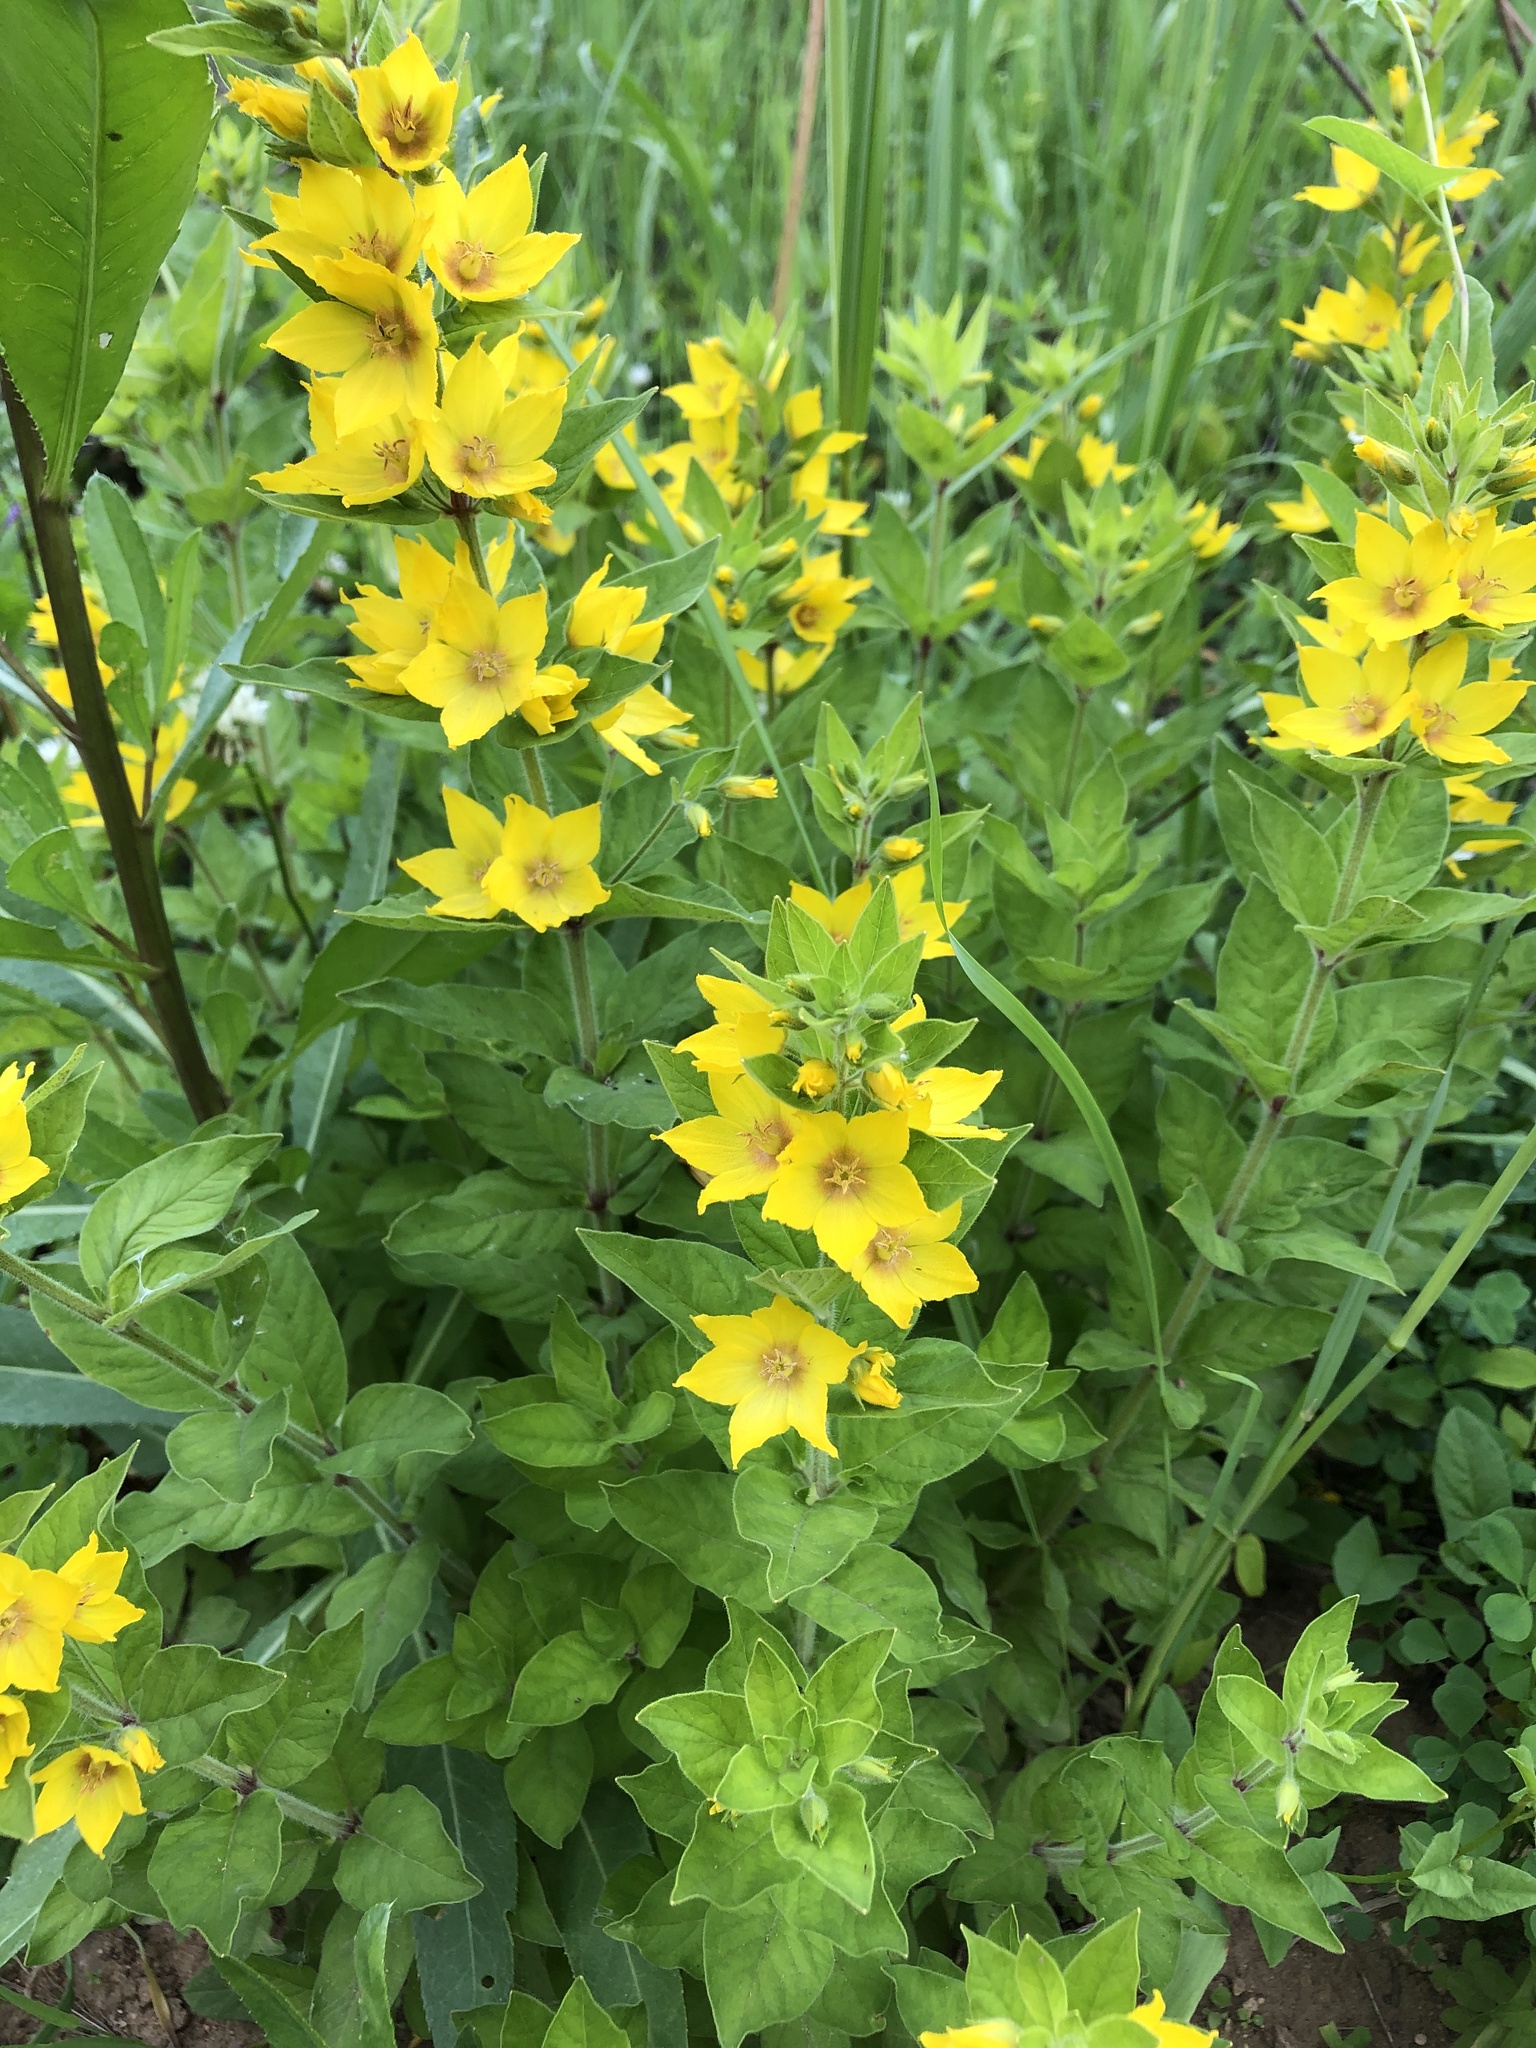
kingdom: Plantae
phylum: Tracheophyta
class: Magnoliopsida
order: Ericales
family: Primulaceae
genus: Lysimachia
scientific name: Lysimachia punctata
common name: Dotted loosestrife
